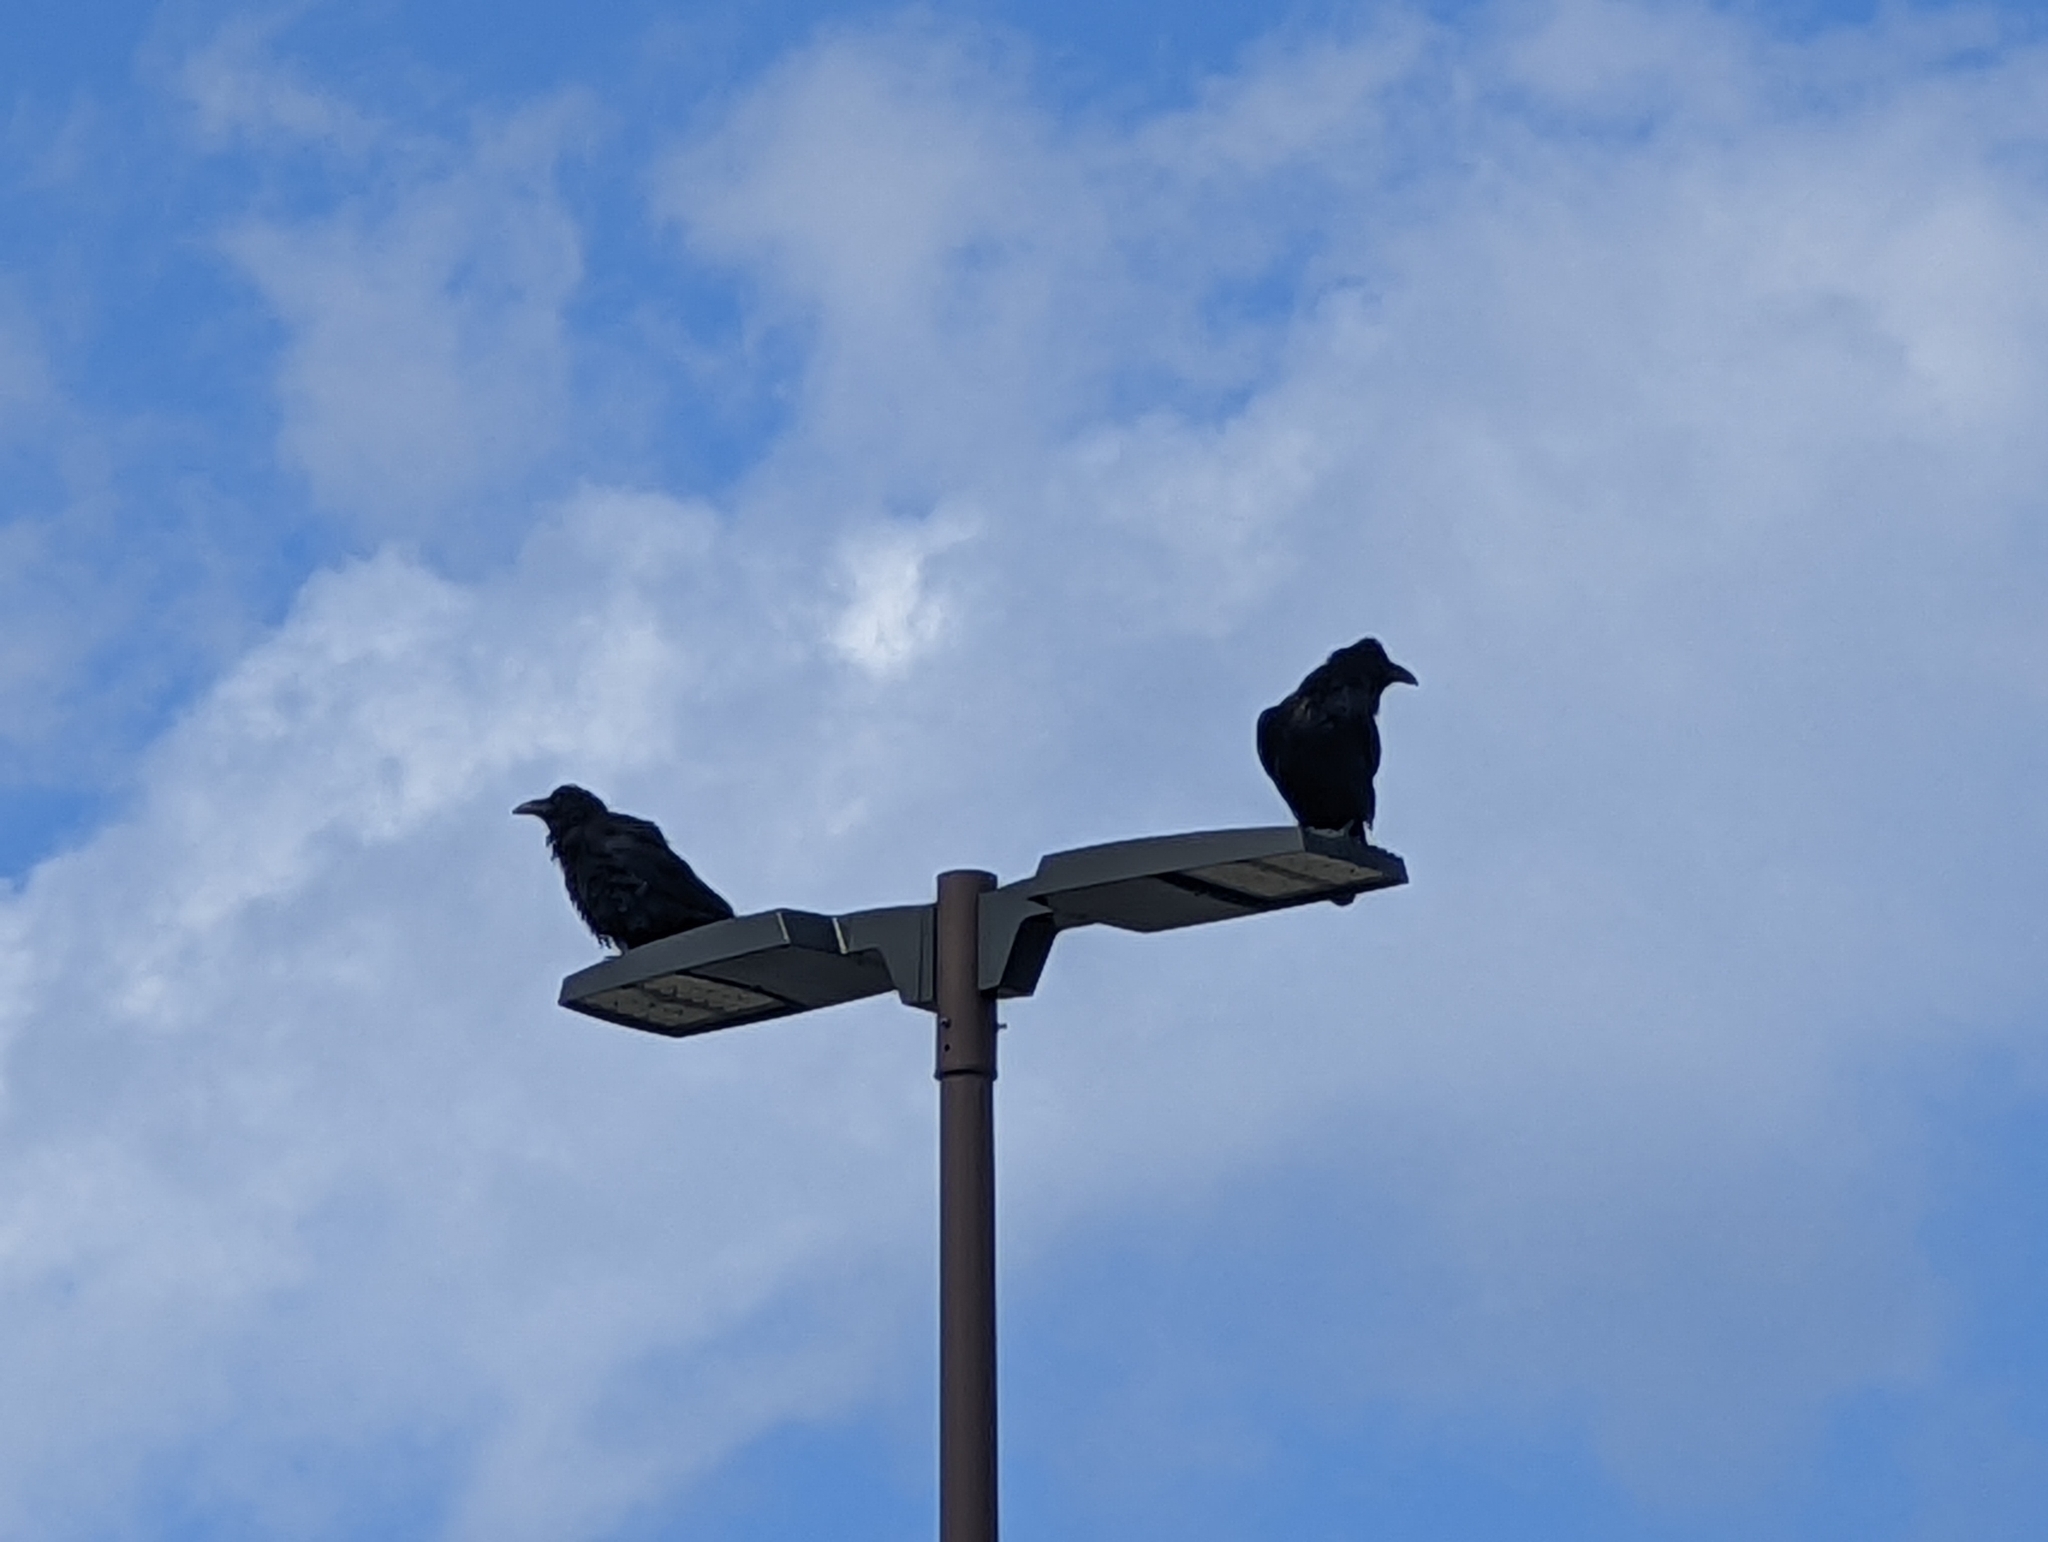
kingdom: Animalia
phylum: Chordata
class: Aves
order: Passeriformes
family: Corvidae
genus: Corvus
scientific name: Corvus corax
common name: Common raven
